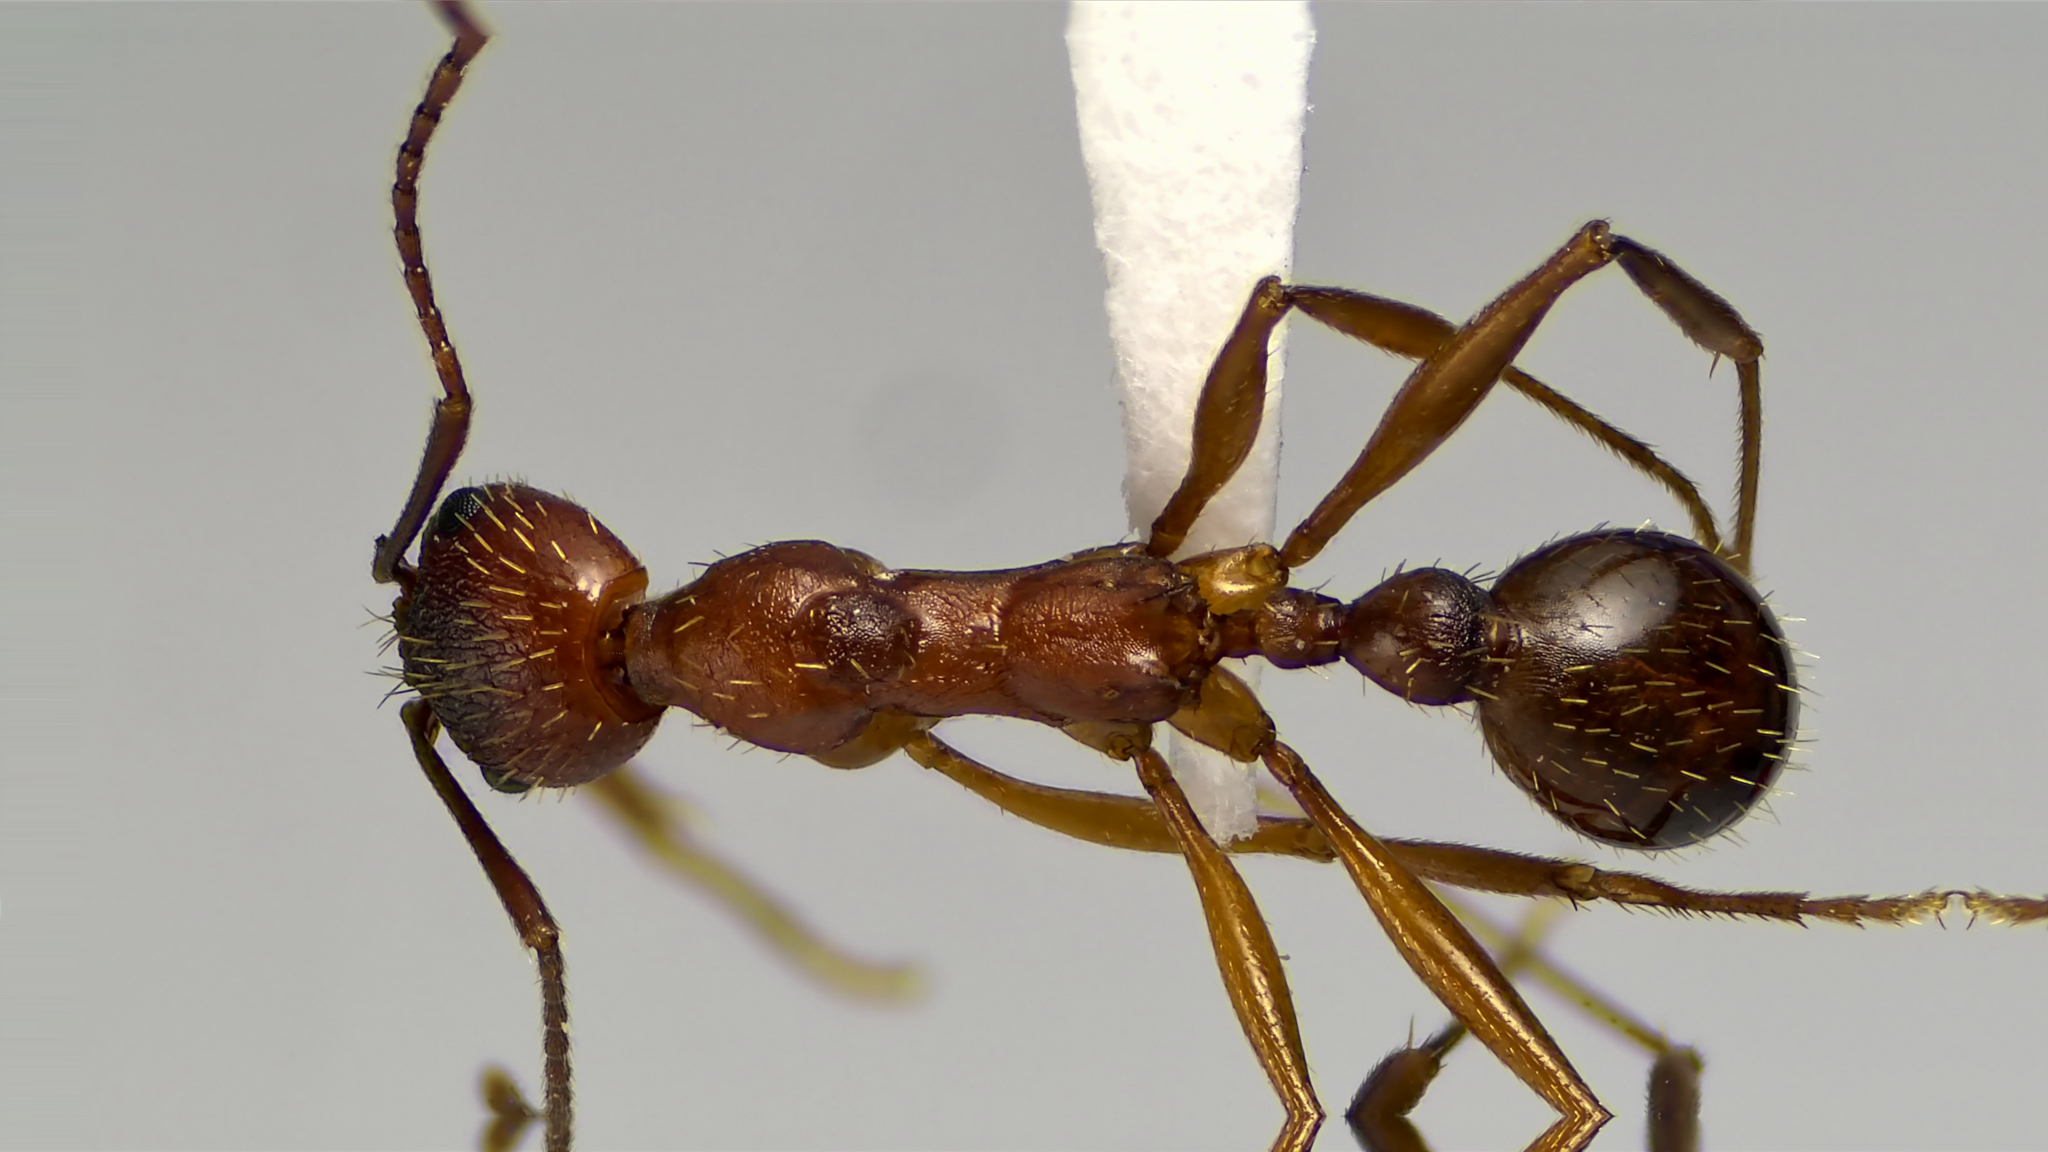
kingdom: Animalia
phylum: Arthropoda
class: Insecta
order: Hymenoptera
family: Formicidae
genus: Aphaenogaster
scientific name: Aphaenogaster treatae
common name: Treat's collared ant
